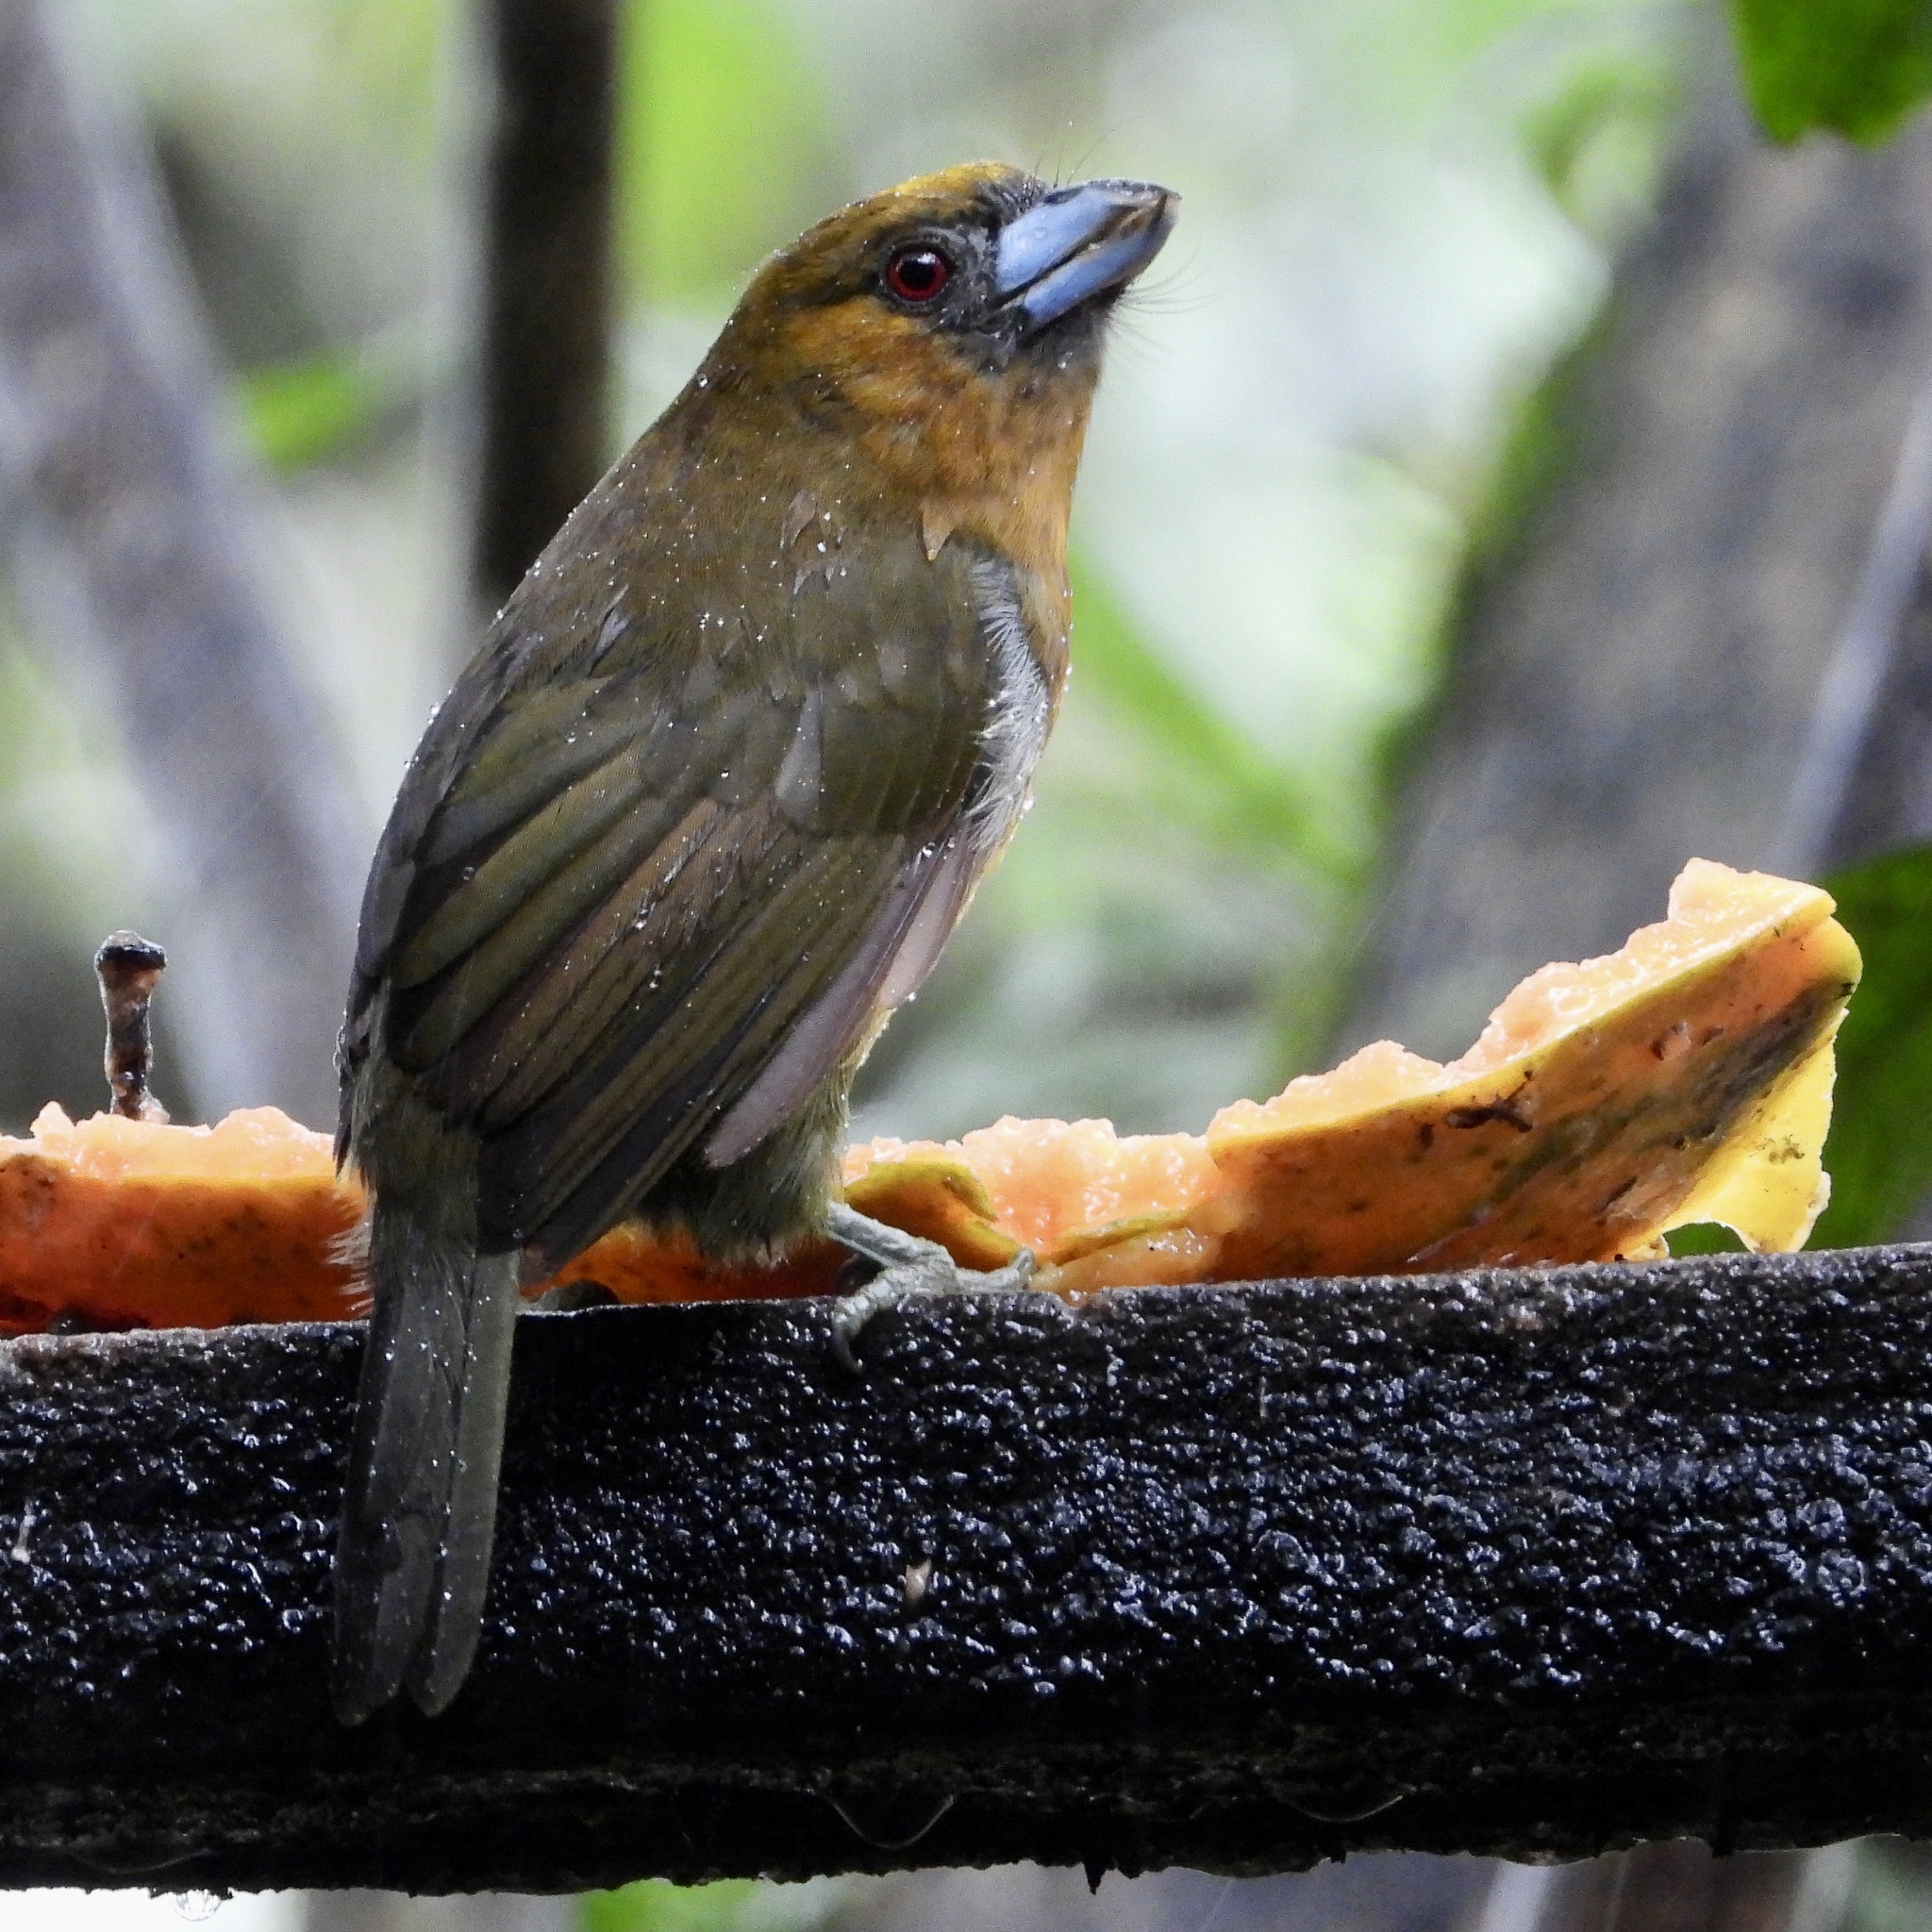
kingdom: Animalia
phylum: Chordata
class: Aves
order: Piciformes
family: Semnornithidae
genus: Semnornis
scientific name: Semnornis frantzii
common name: Prong-billed barbet
